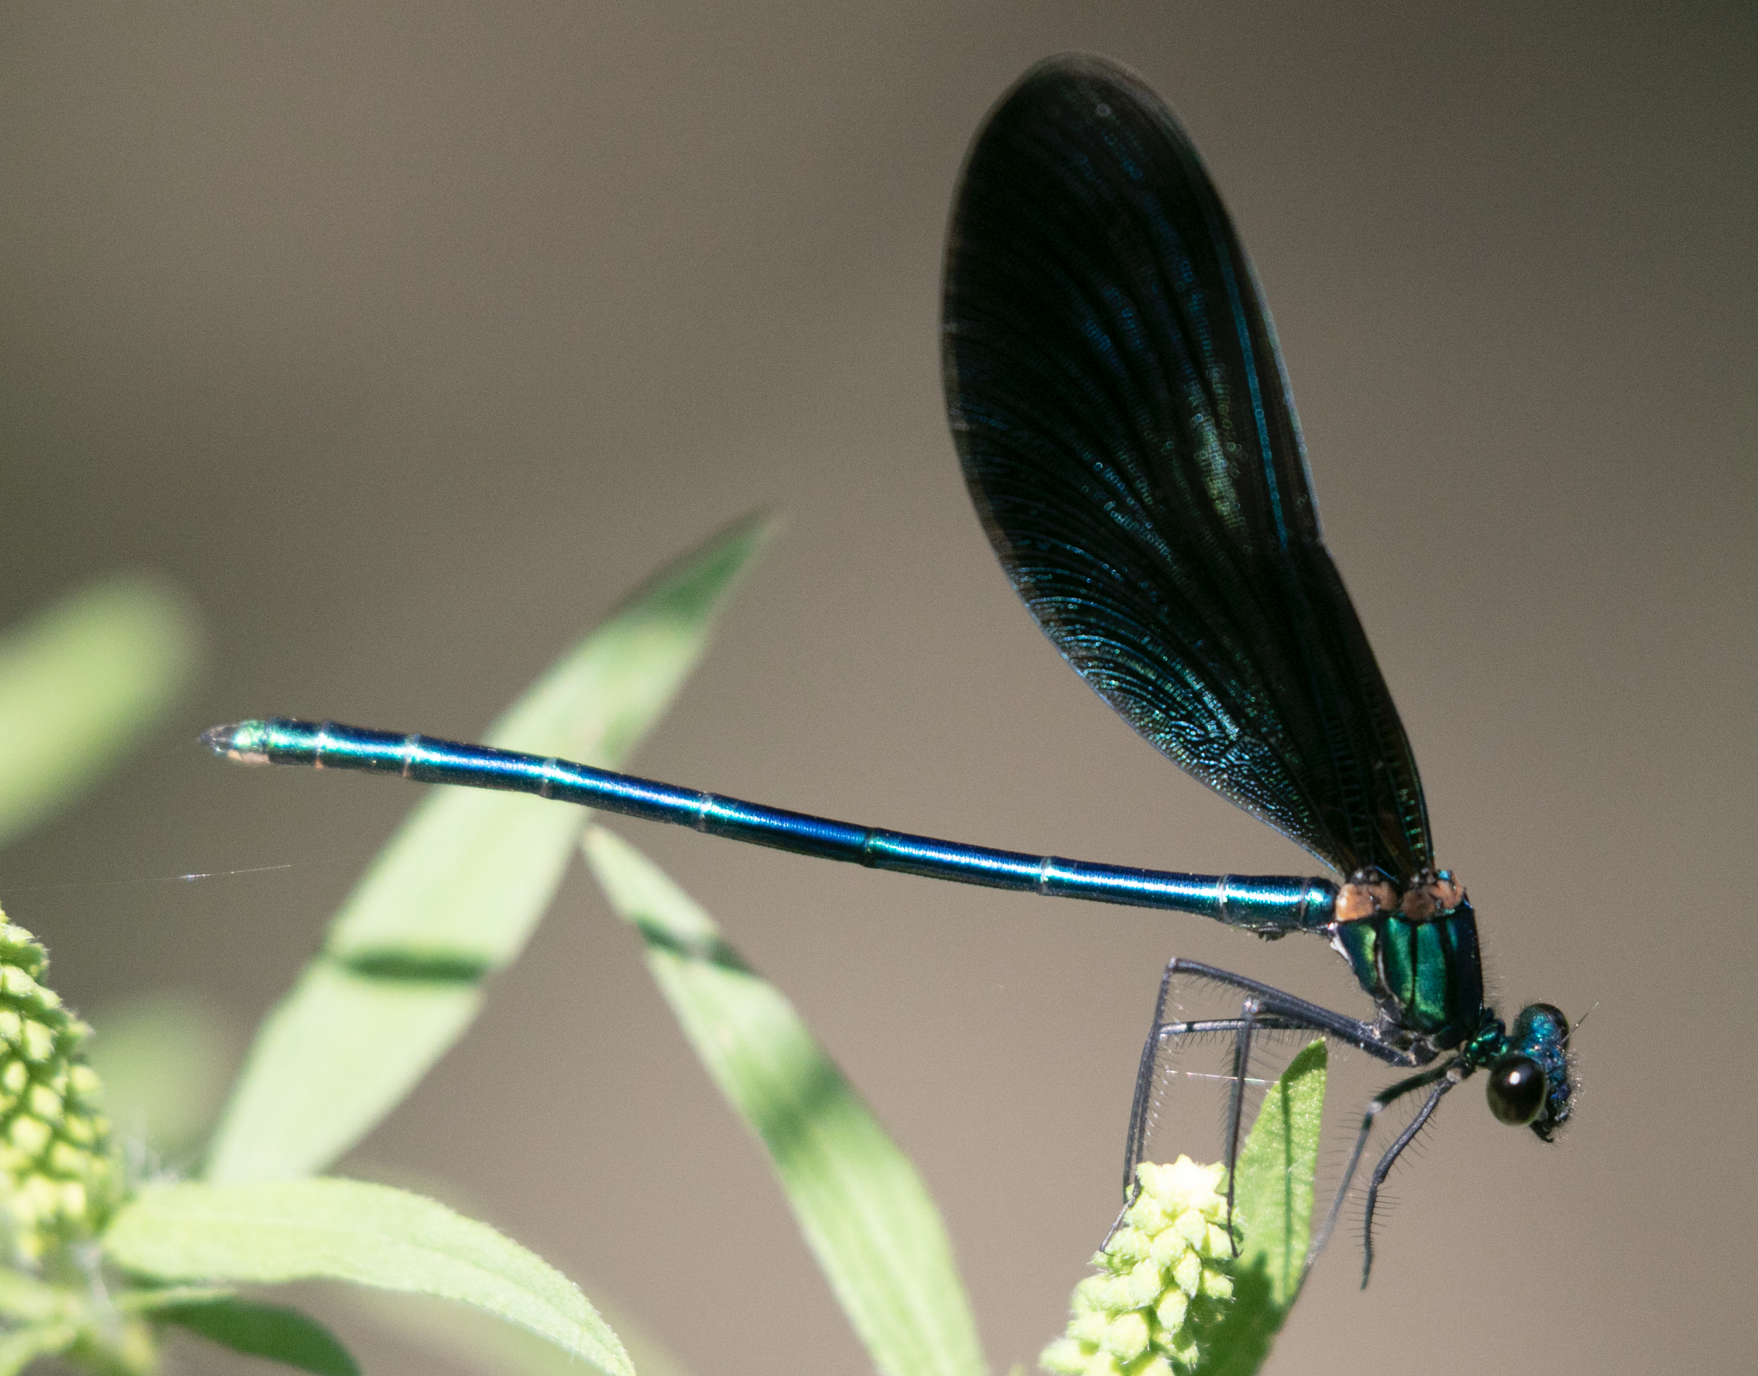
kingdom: Animalia
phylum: Arthropoda
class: Insecta
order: Odonata
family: Calopterygidae
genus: Calopteryx
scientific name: Calopteryx virgo
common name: Beautiful demoiselle
